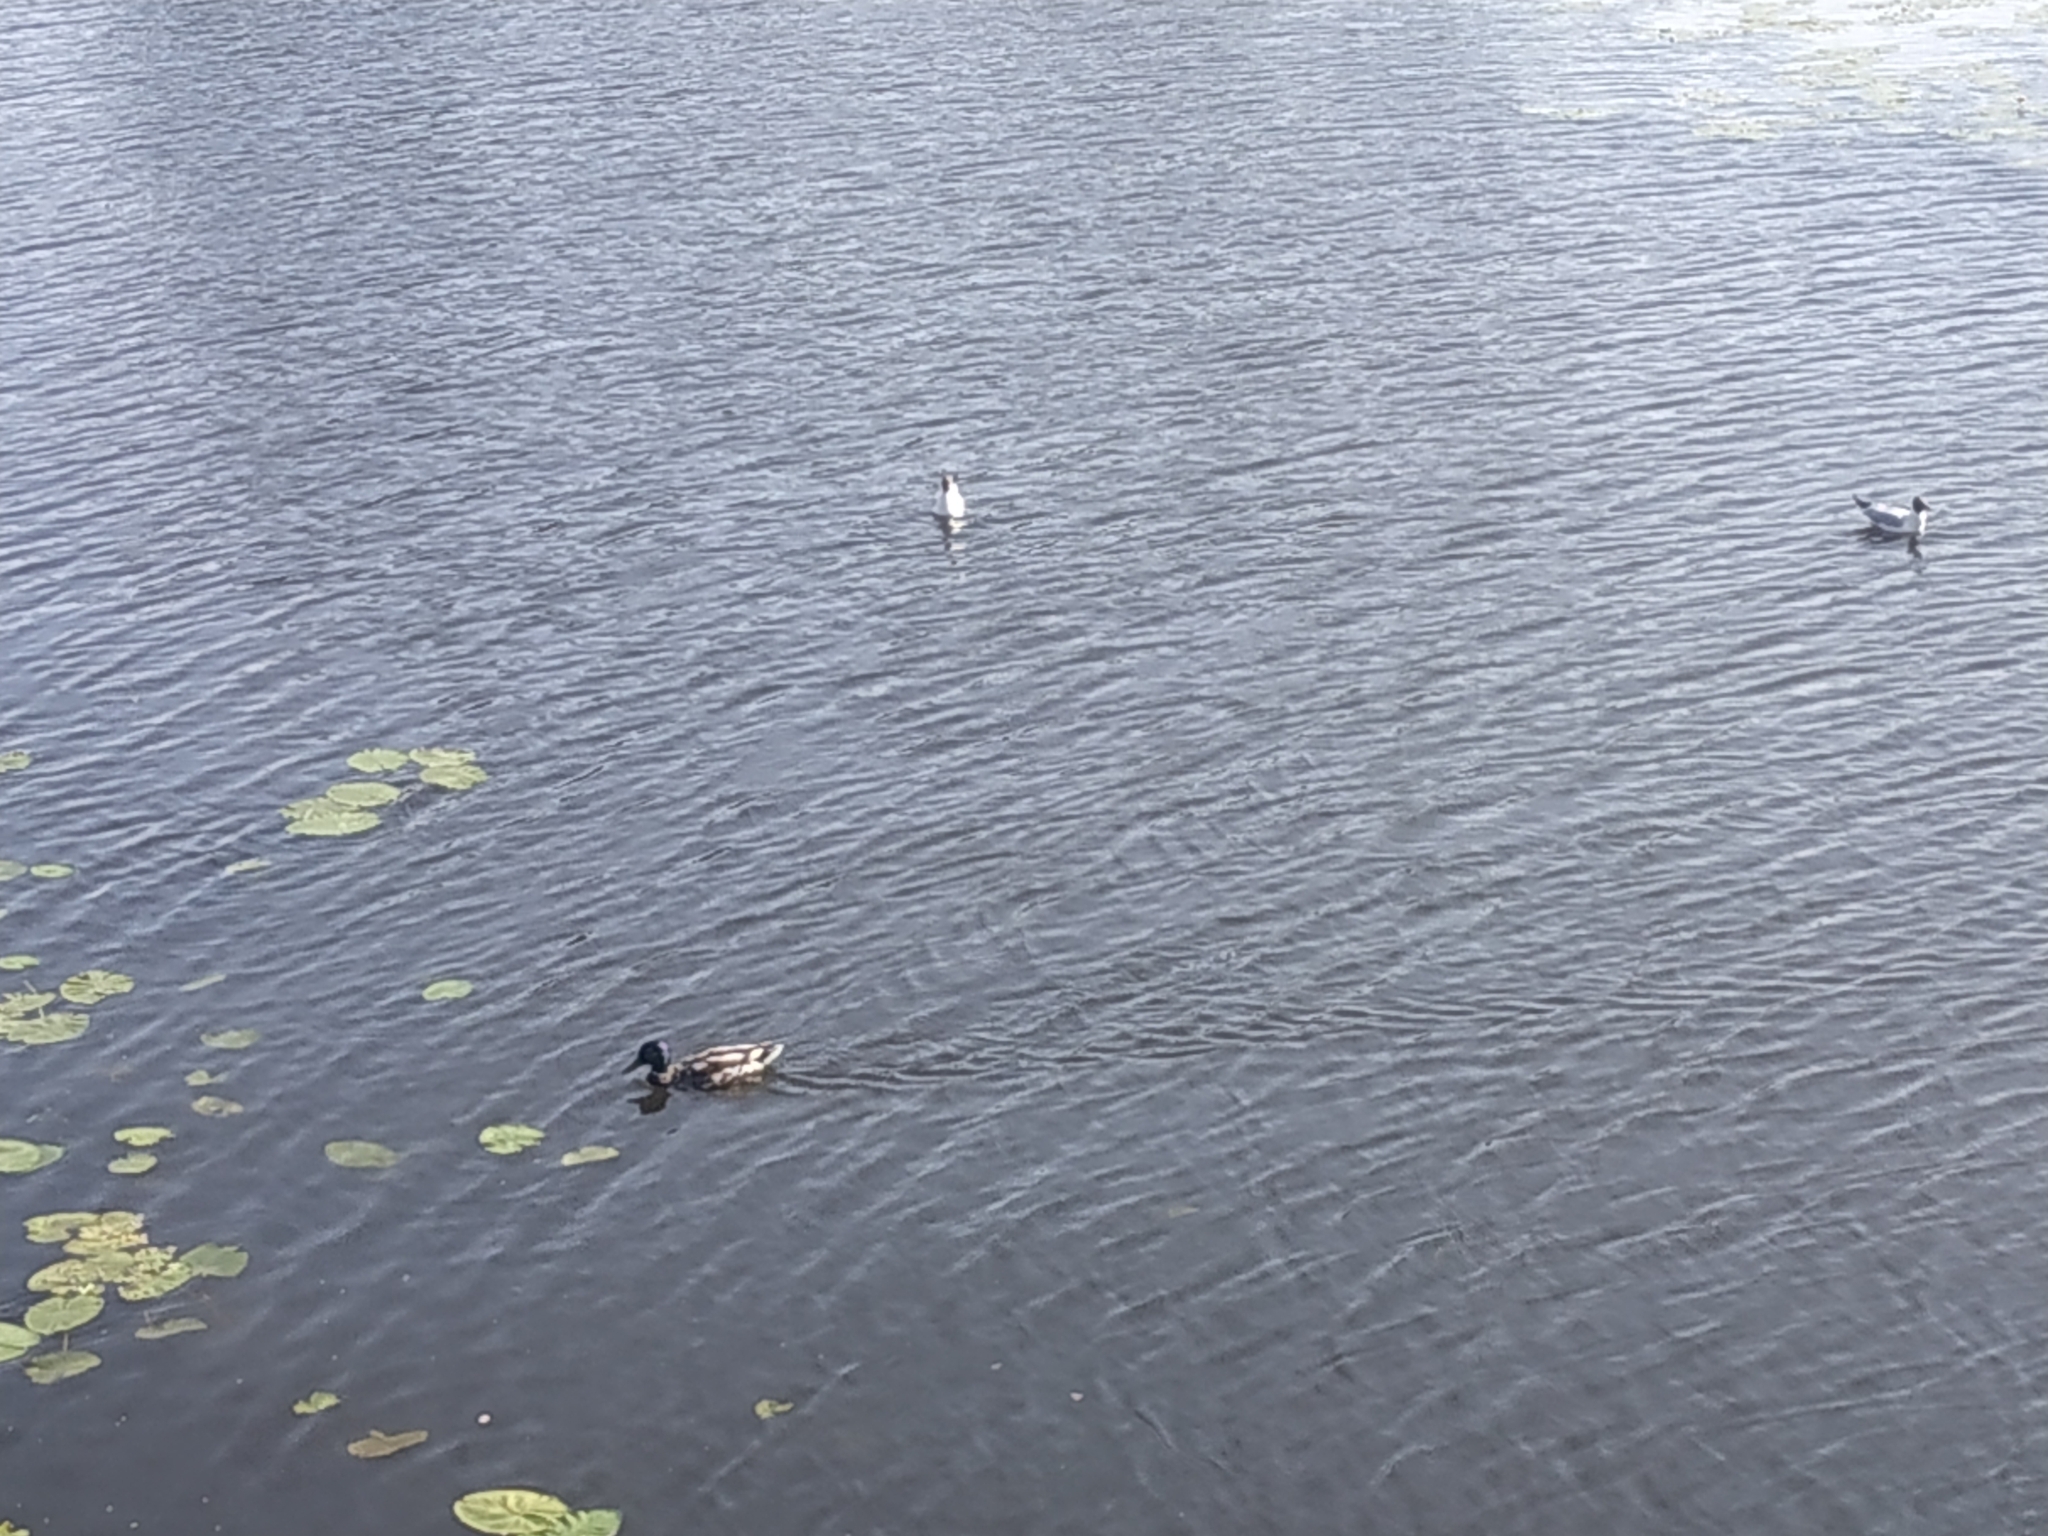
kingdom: Animalia
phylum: Chordata
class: Aves
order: Charadriiformes
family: Laridae
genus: Chroicocephalus
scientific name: Chroicocephalus ridibundus
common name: Black-headed gull
